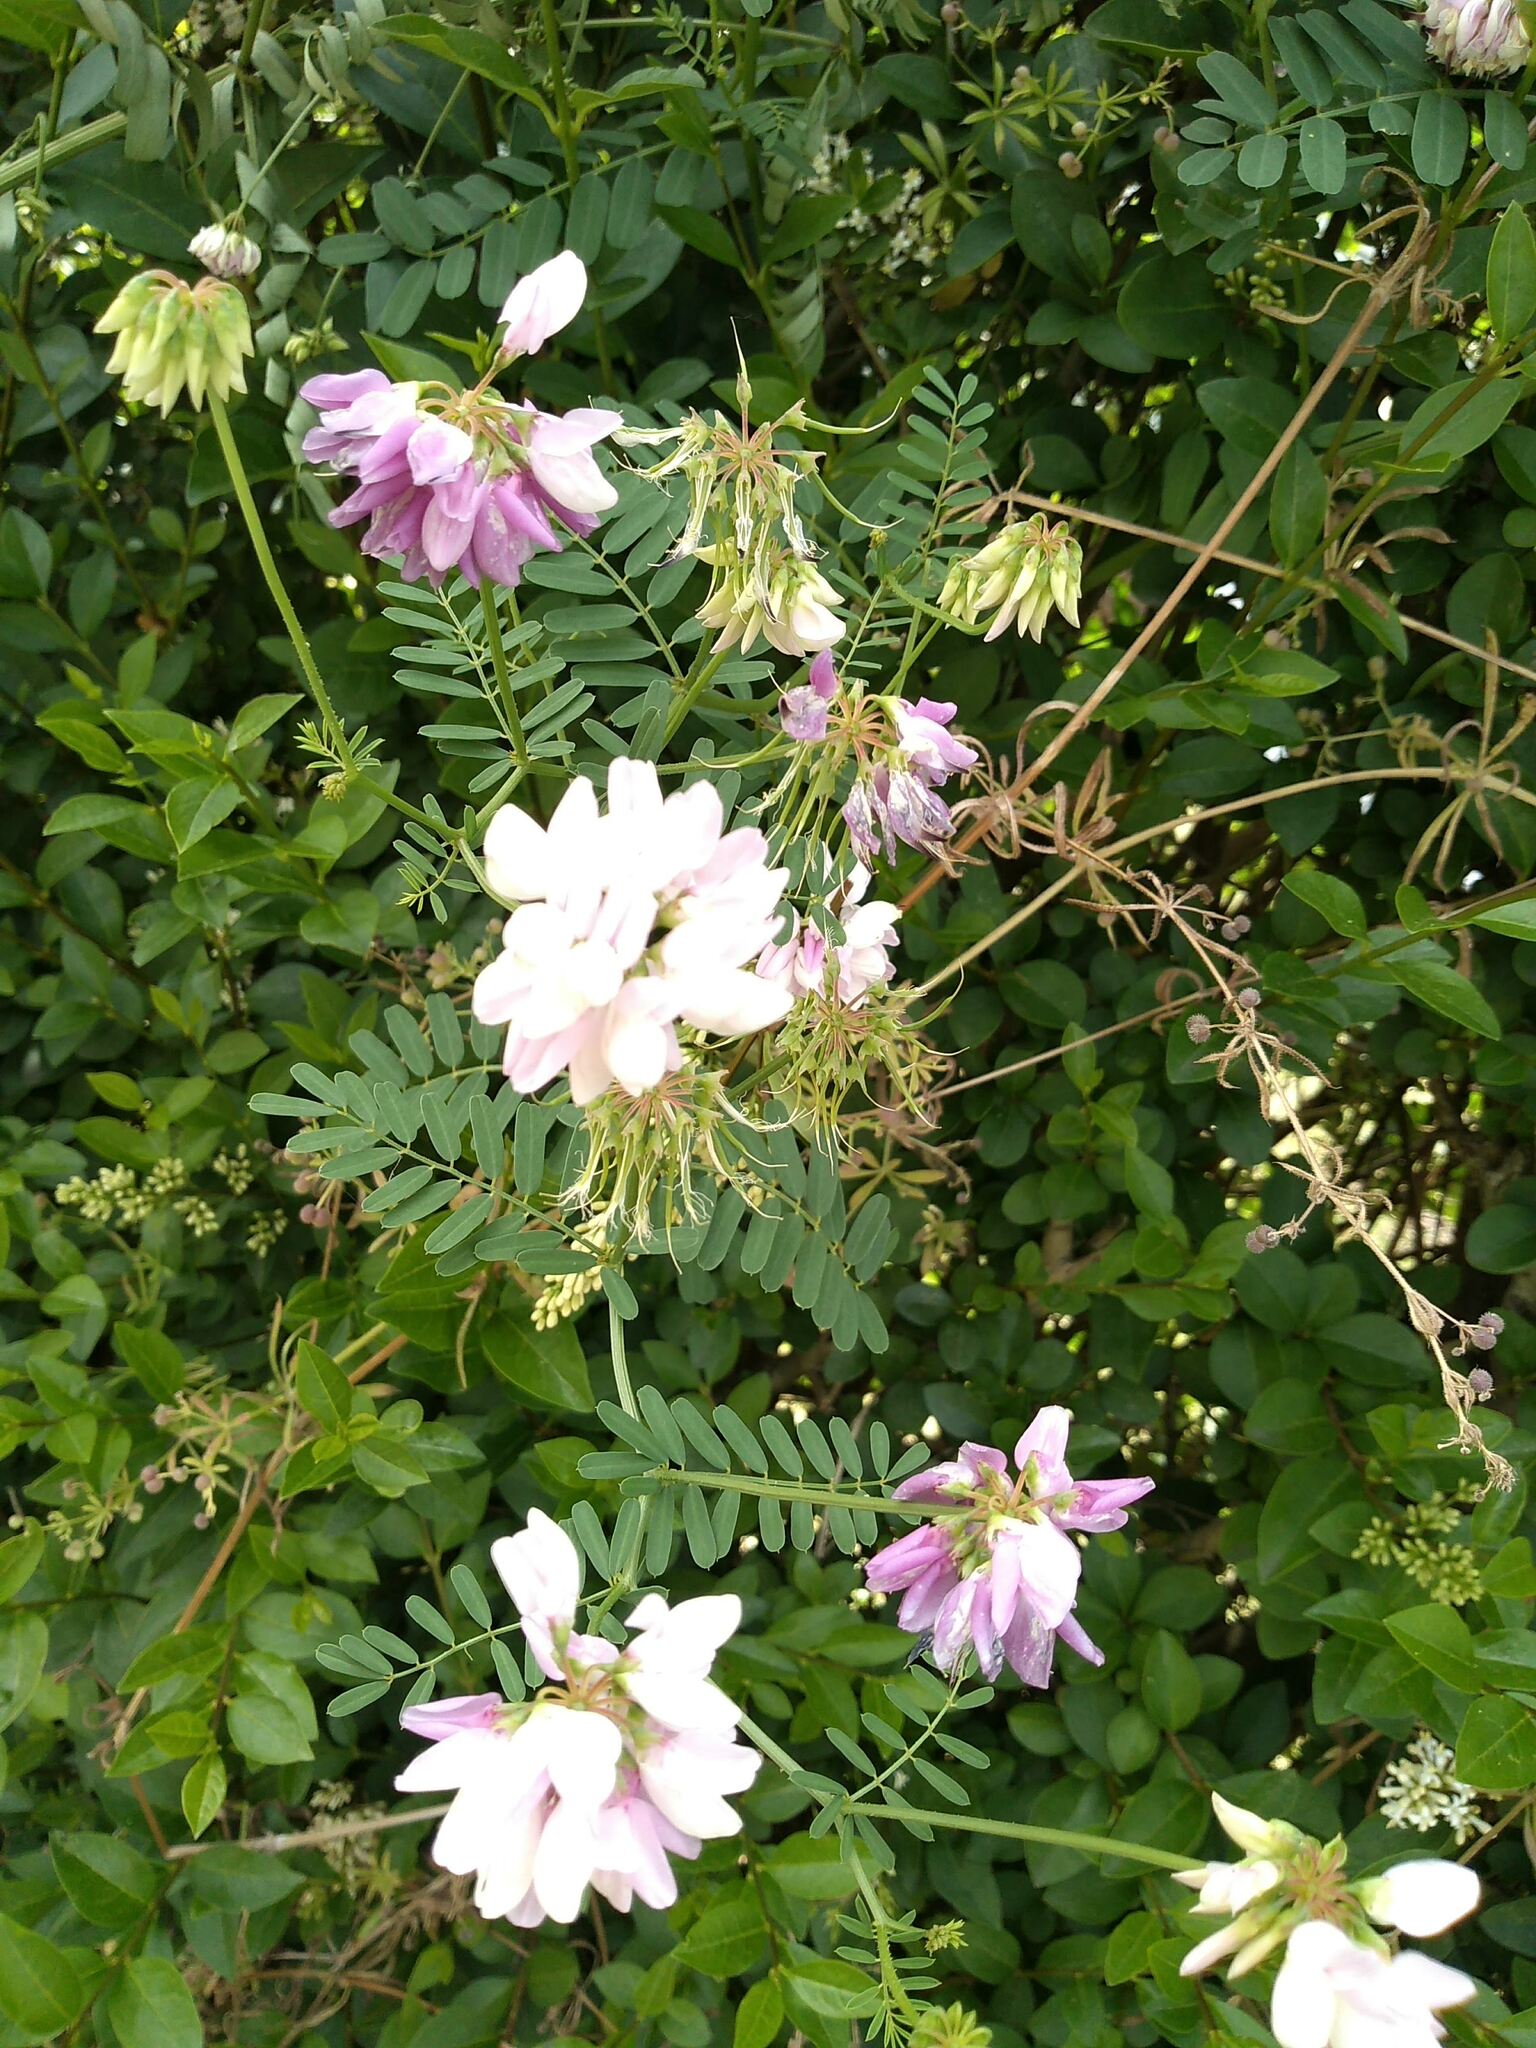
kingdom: Plantae
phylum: Tracheophyta
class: Magnoliopsida
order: Fabales
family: Fabaceae
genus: Coronilla
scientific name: Coronilla varia
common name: Crownvetch
